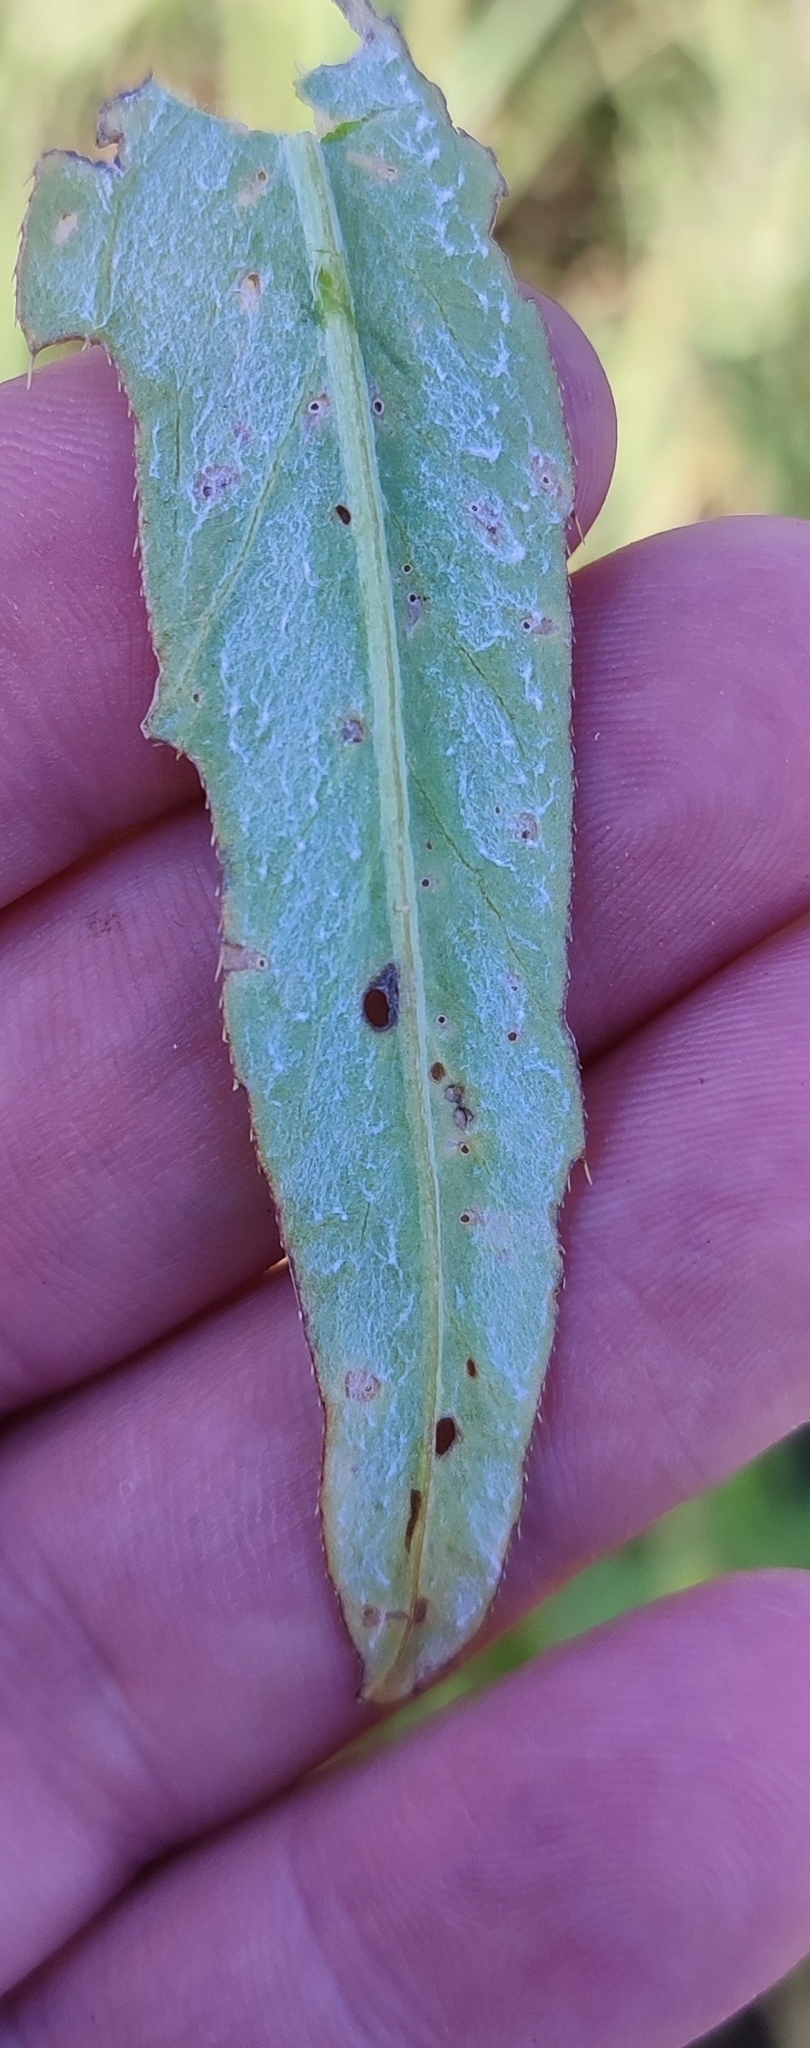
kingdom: Plantae
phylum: Tracheophyta
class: Magnoliopsida
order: Asterales
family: Asteraceae
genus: Cirsium
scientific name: Cirsium arvense
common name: Creeping thistle
